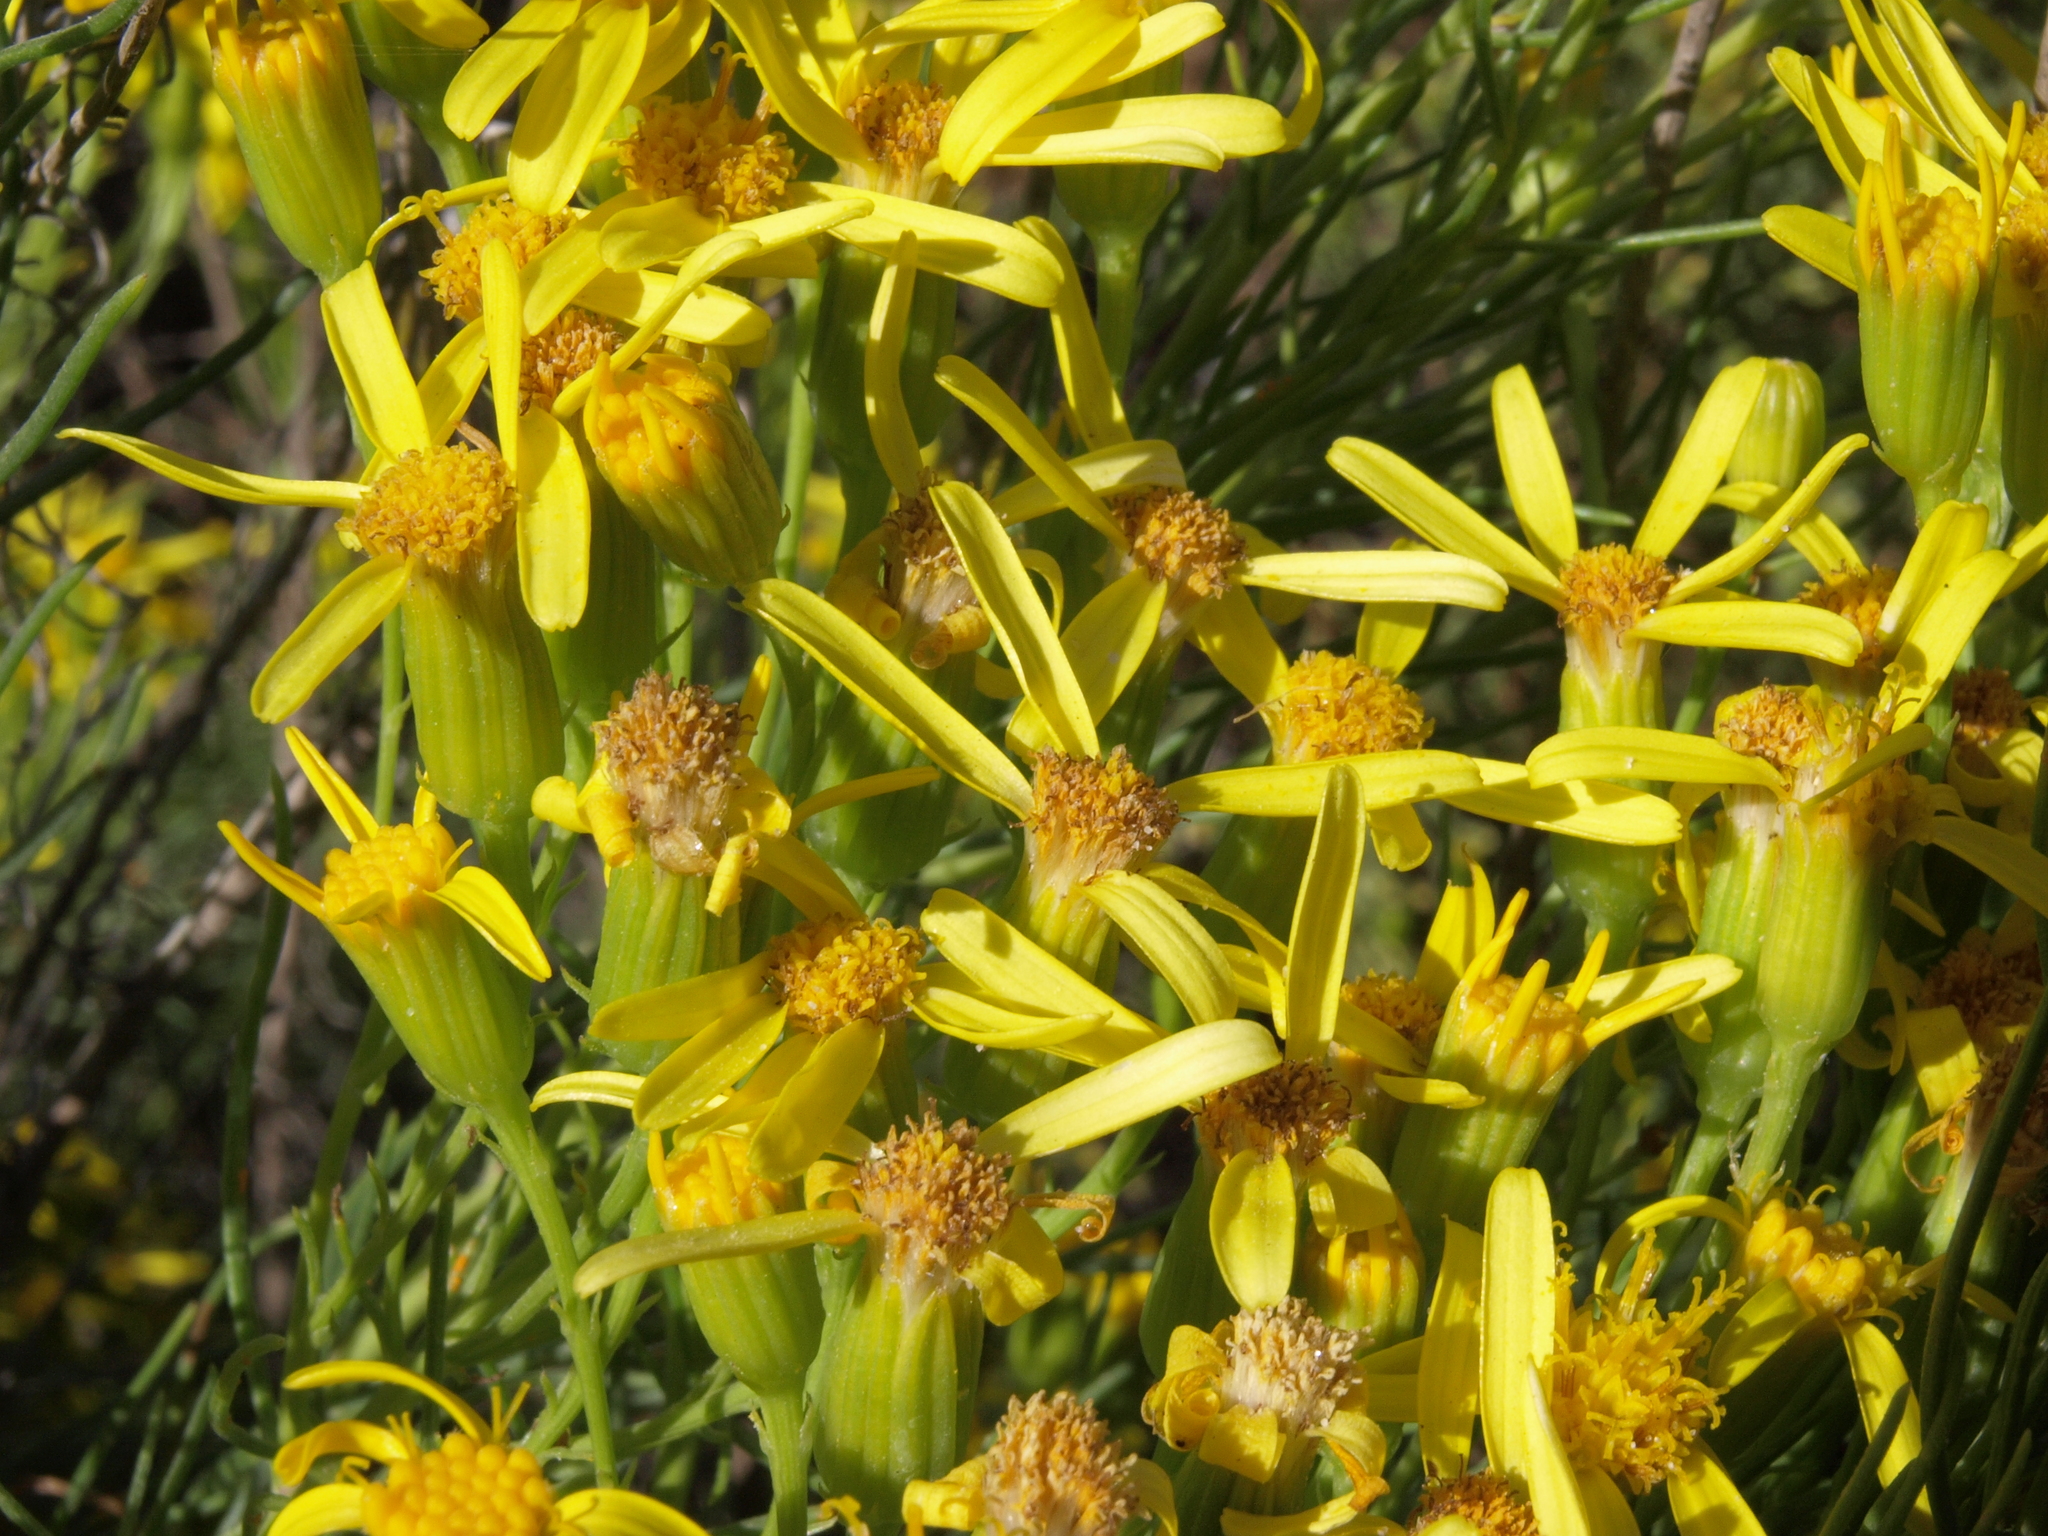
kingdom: Plantae
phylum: Tracheophyta
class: Magnoliopsida
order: Asterales
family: Asteraceae
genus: Senecio
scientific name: Senecio blochmaniae
